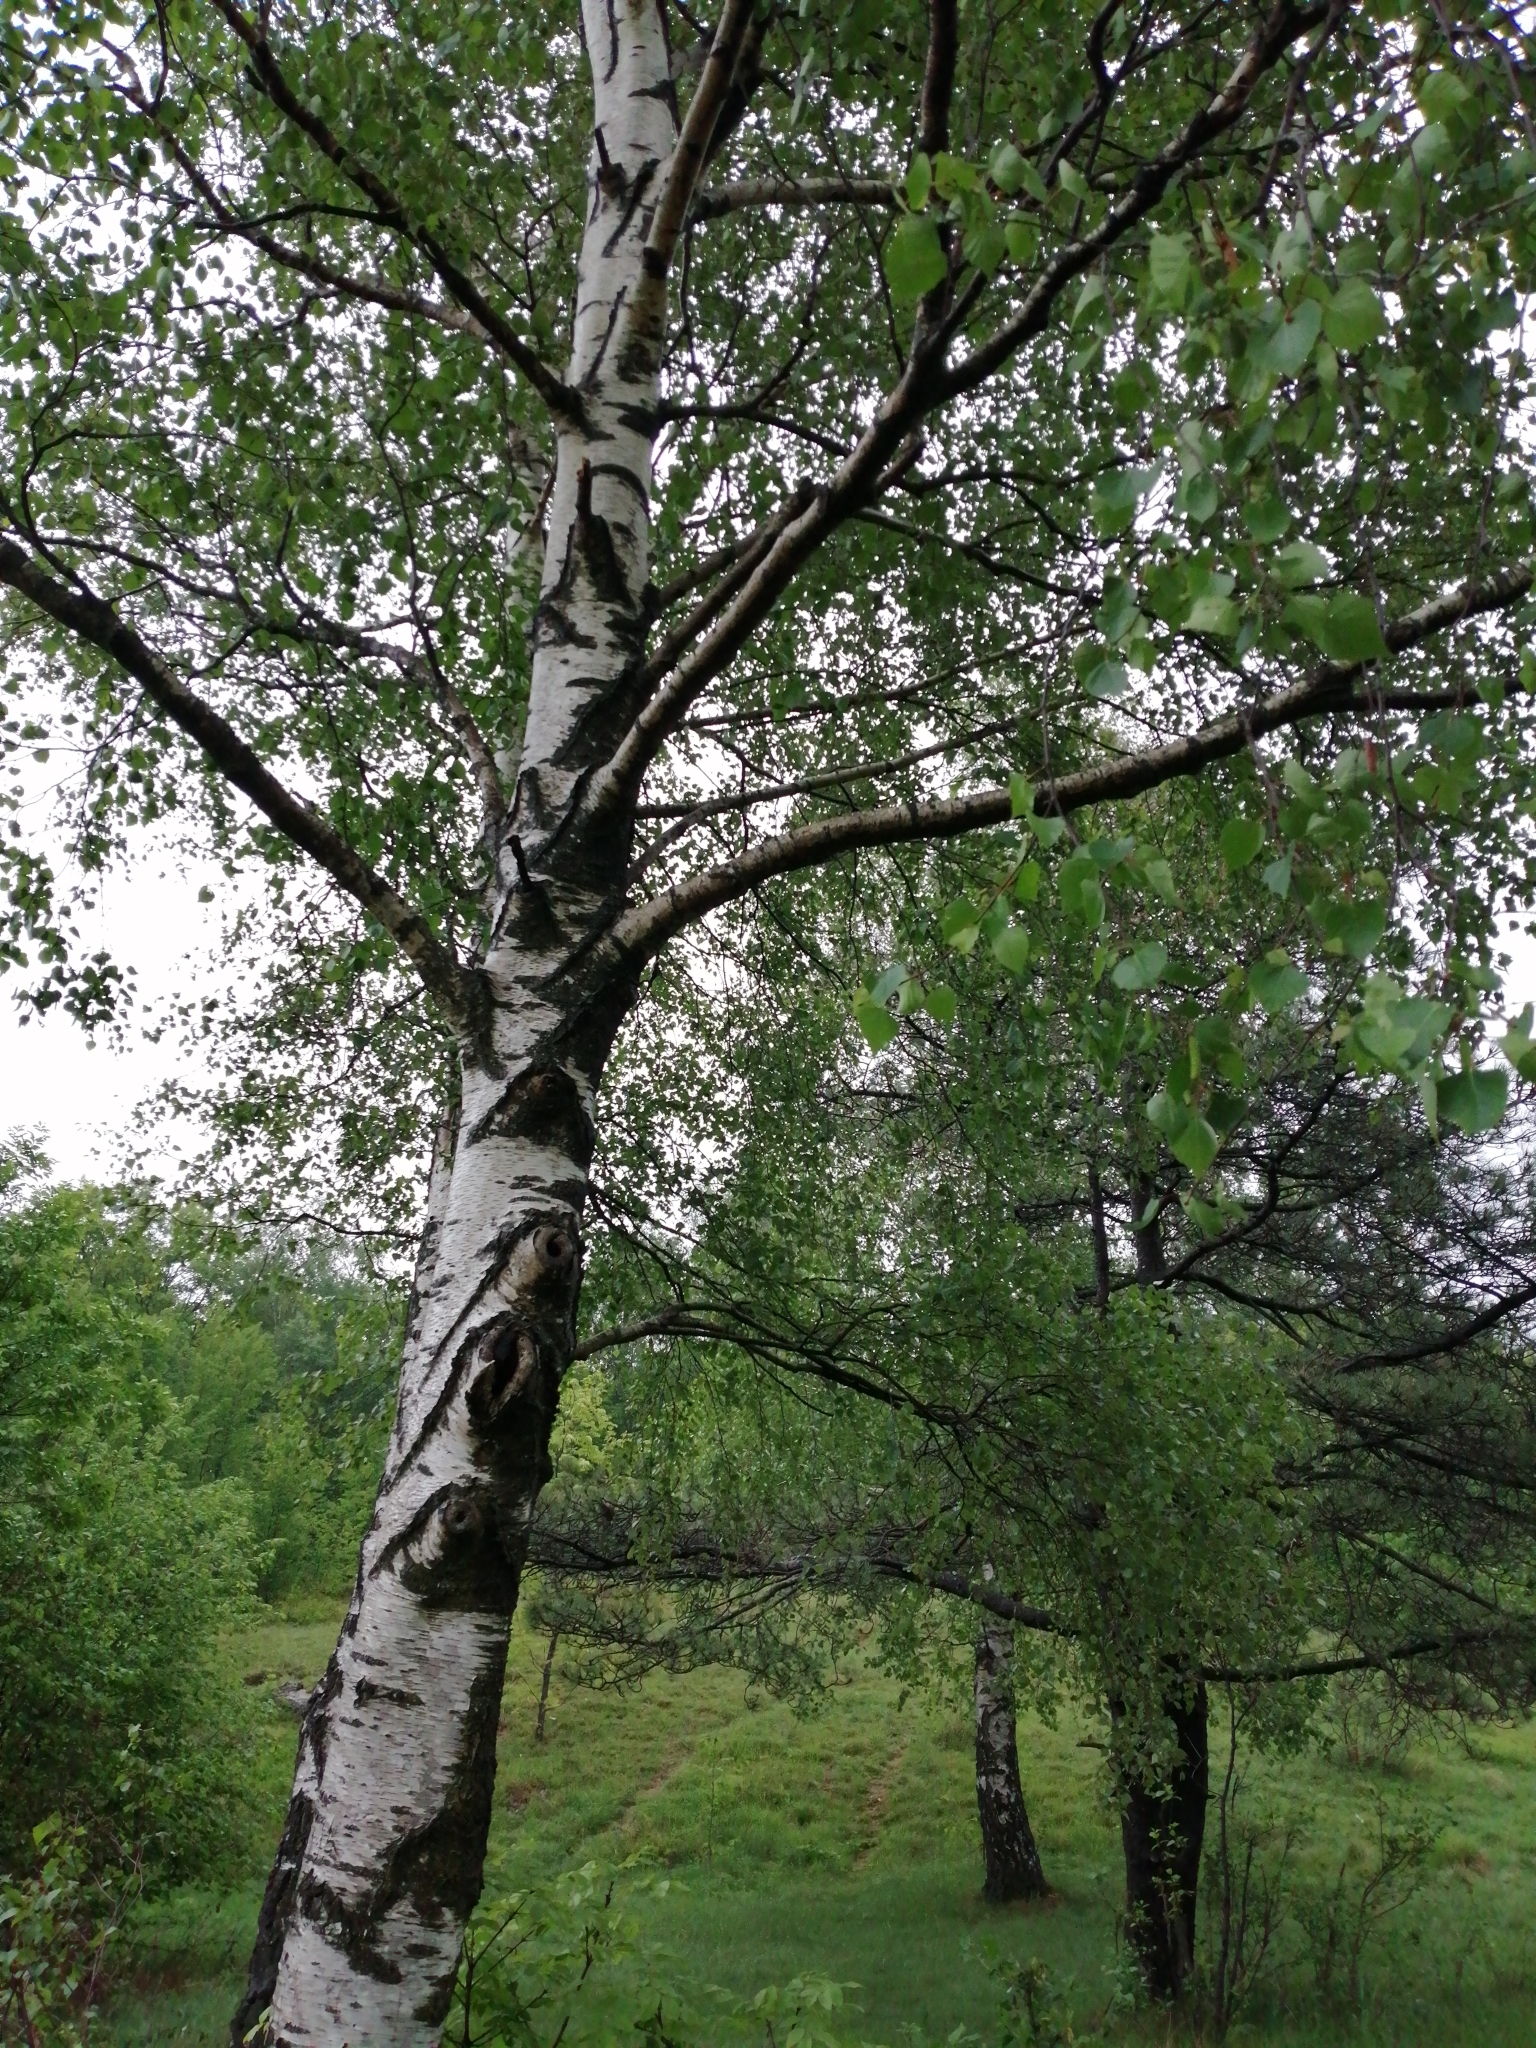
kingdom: Plantae
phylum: Tracheophyta
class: Magnoliopsida
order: Fagales
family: Betulaceae
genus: Betula
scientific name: Betula pendula
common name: Silver birch
